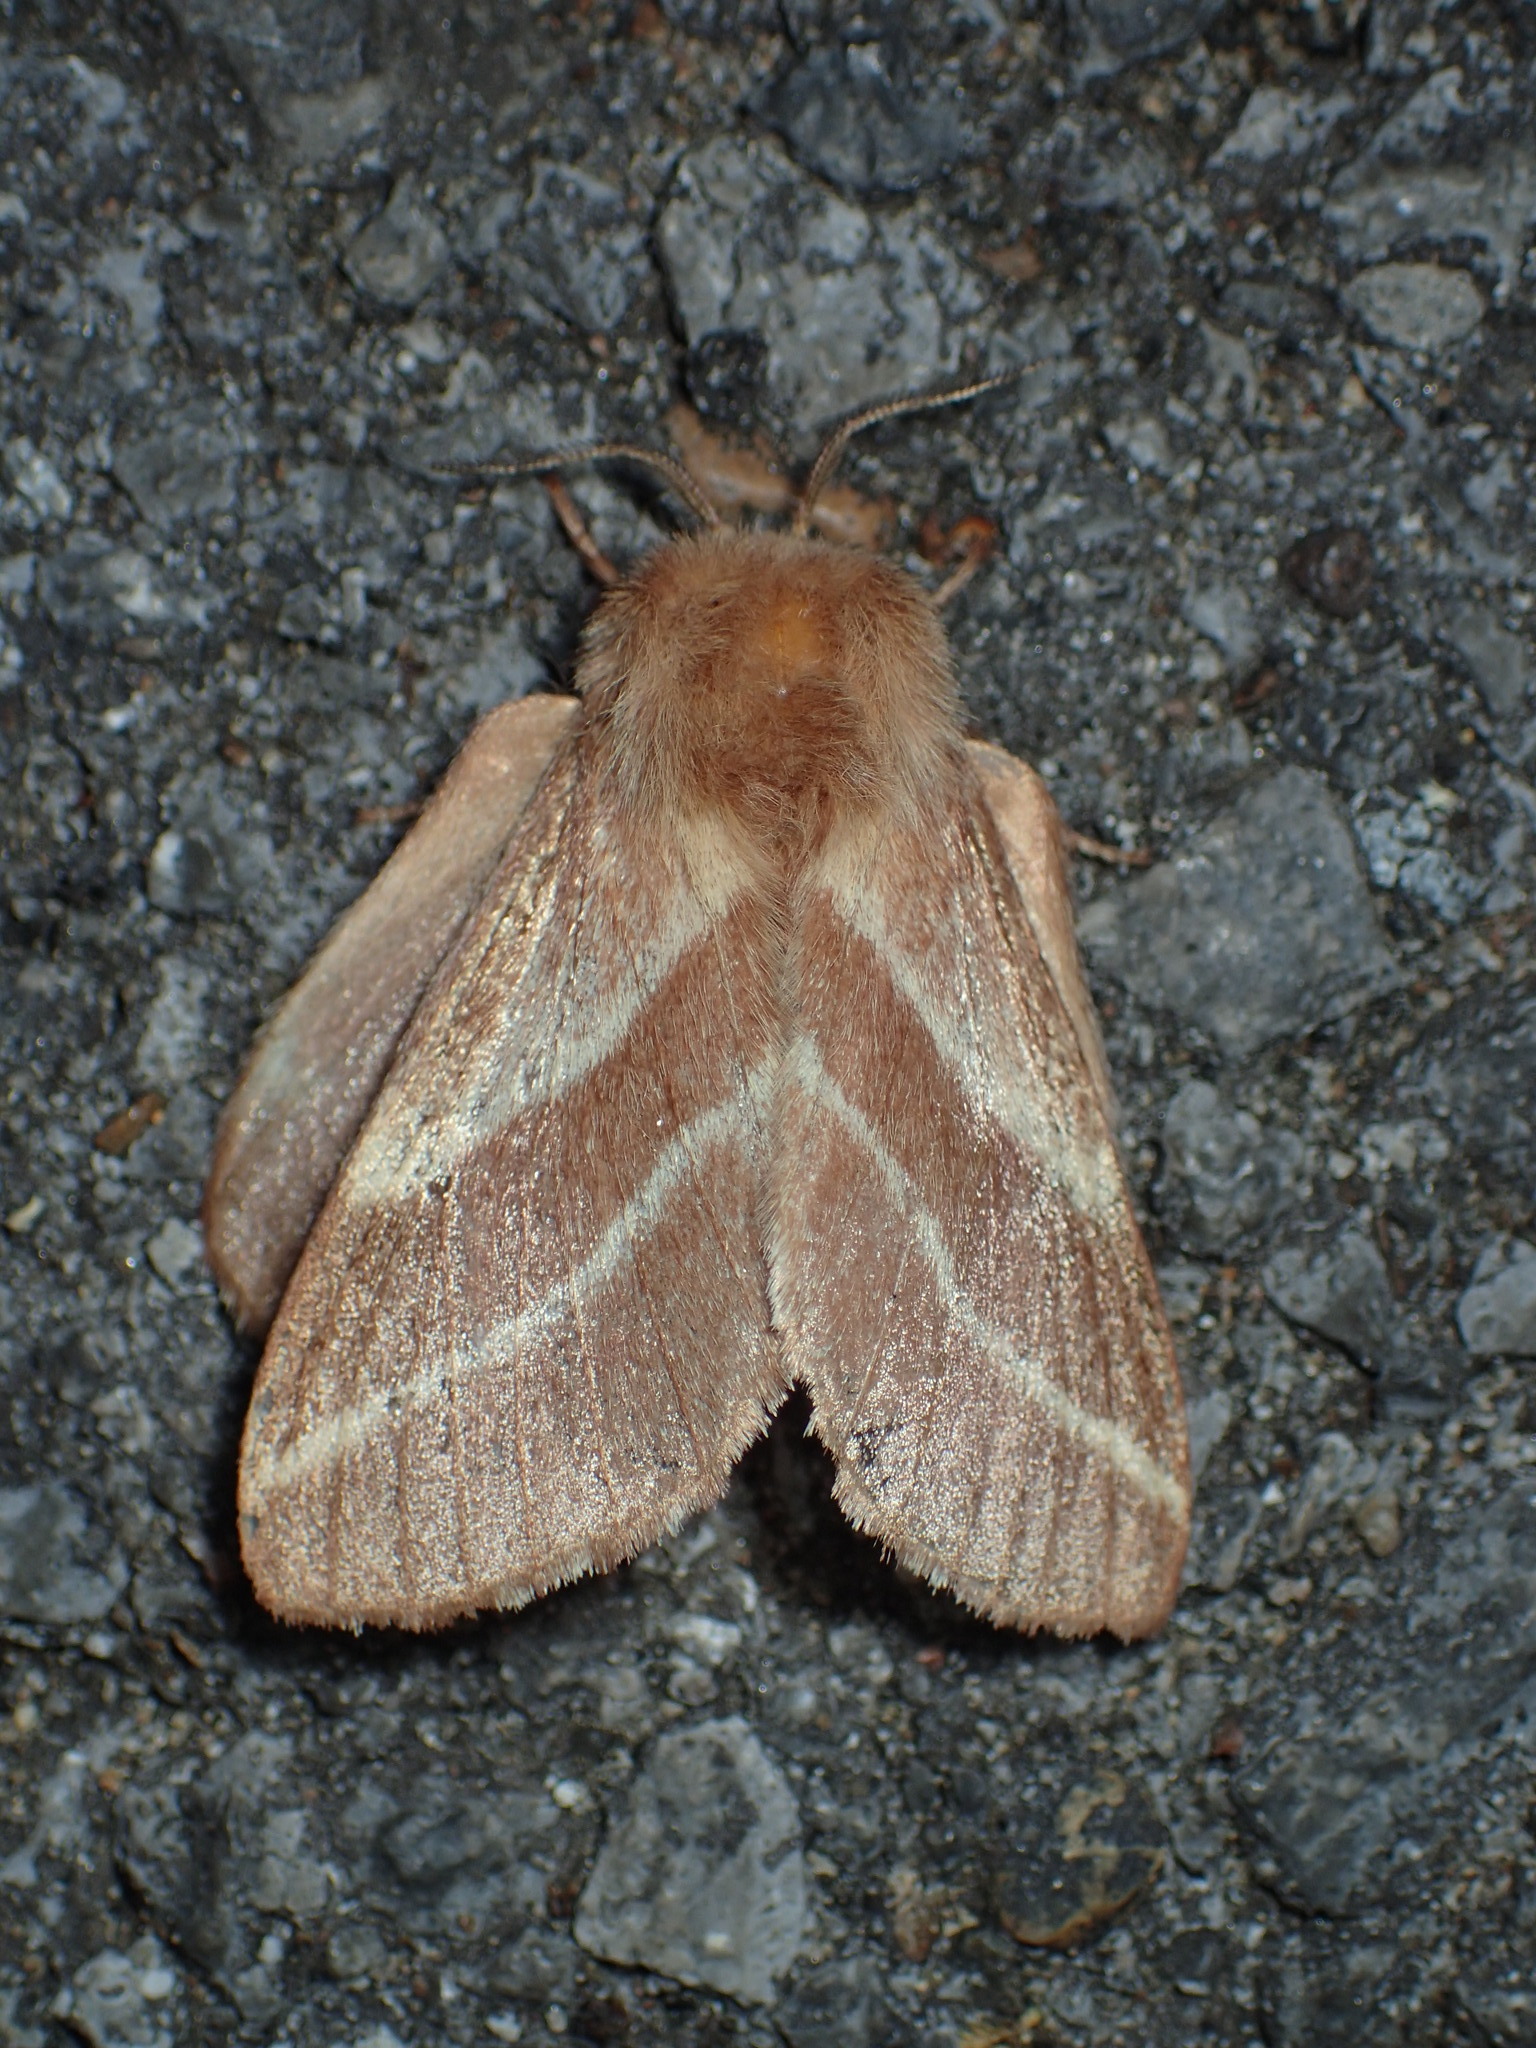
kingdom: Animalia
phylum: Arthropoda
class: Insecta
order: Lepidoptera
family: Lasiocampidae
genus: Malacosoma
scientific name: Malacosoma americana
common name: Eastern tent caterpillar moth
